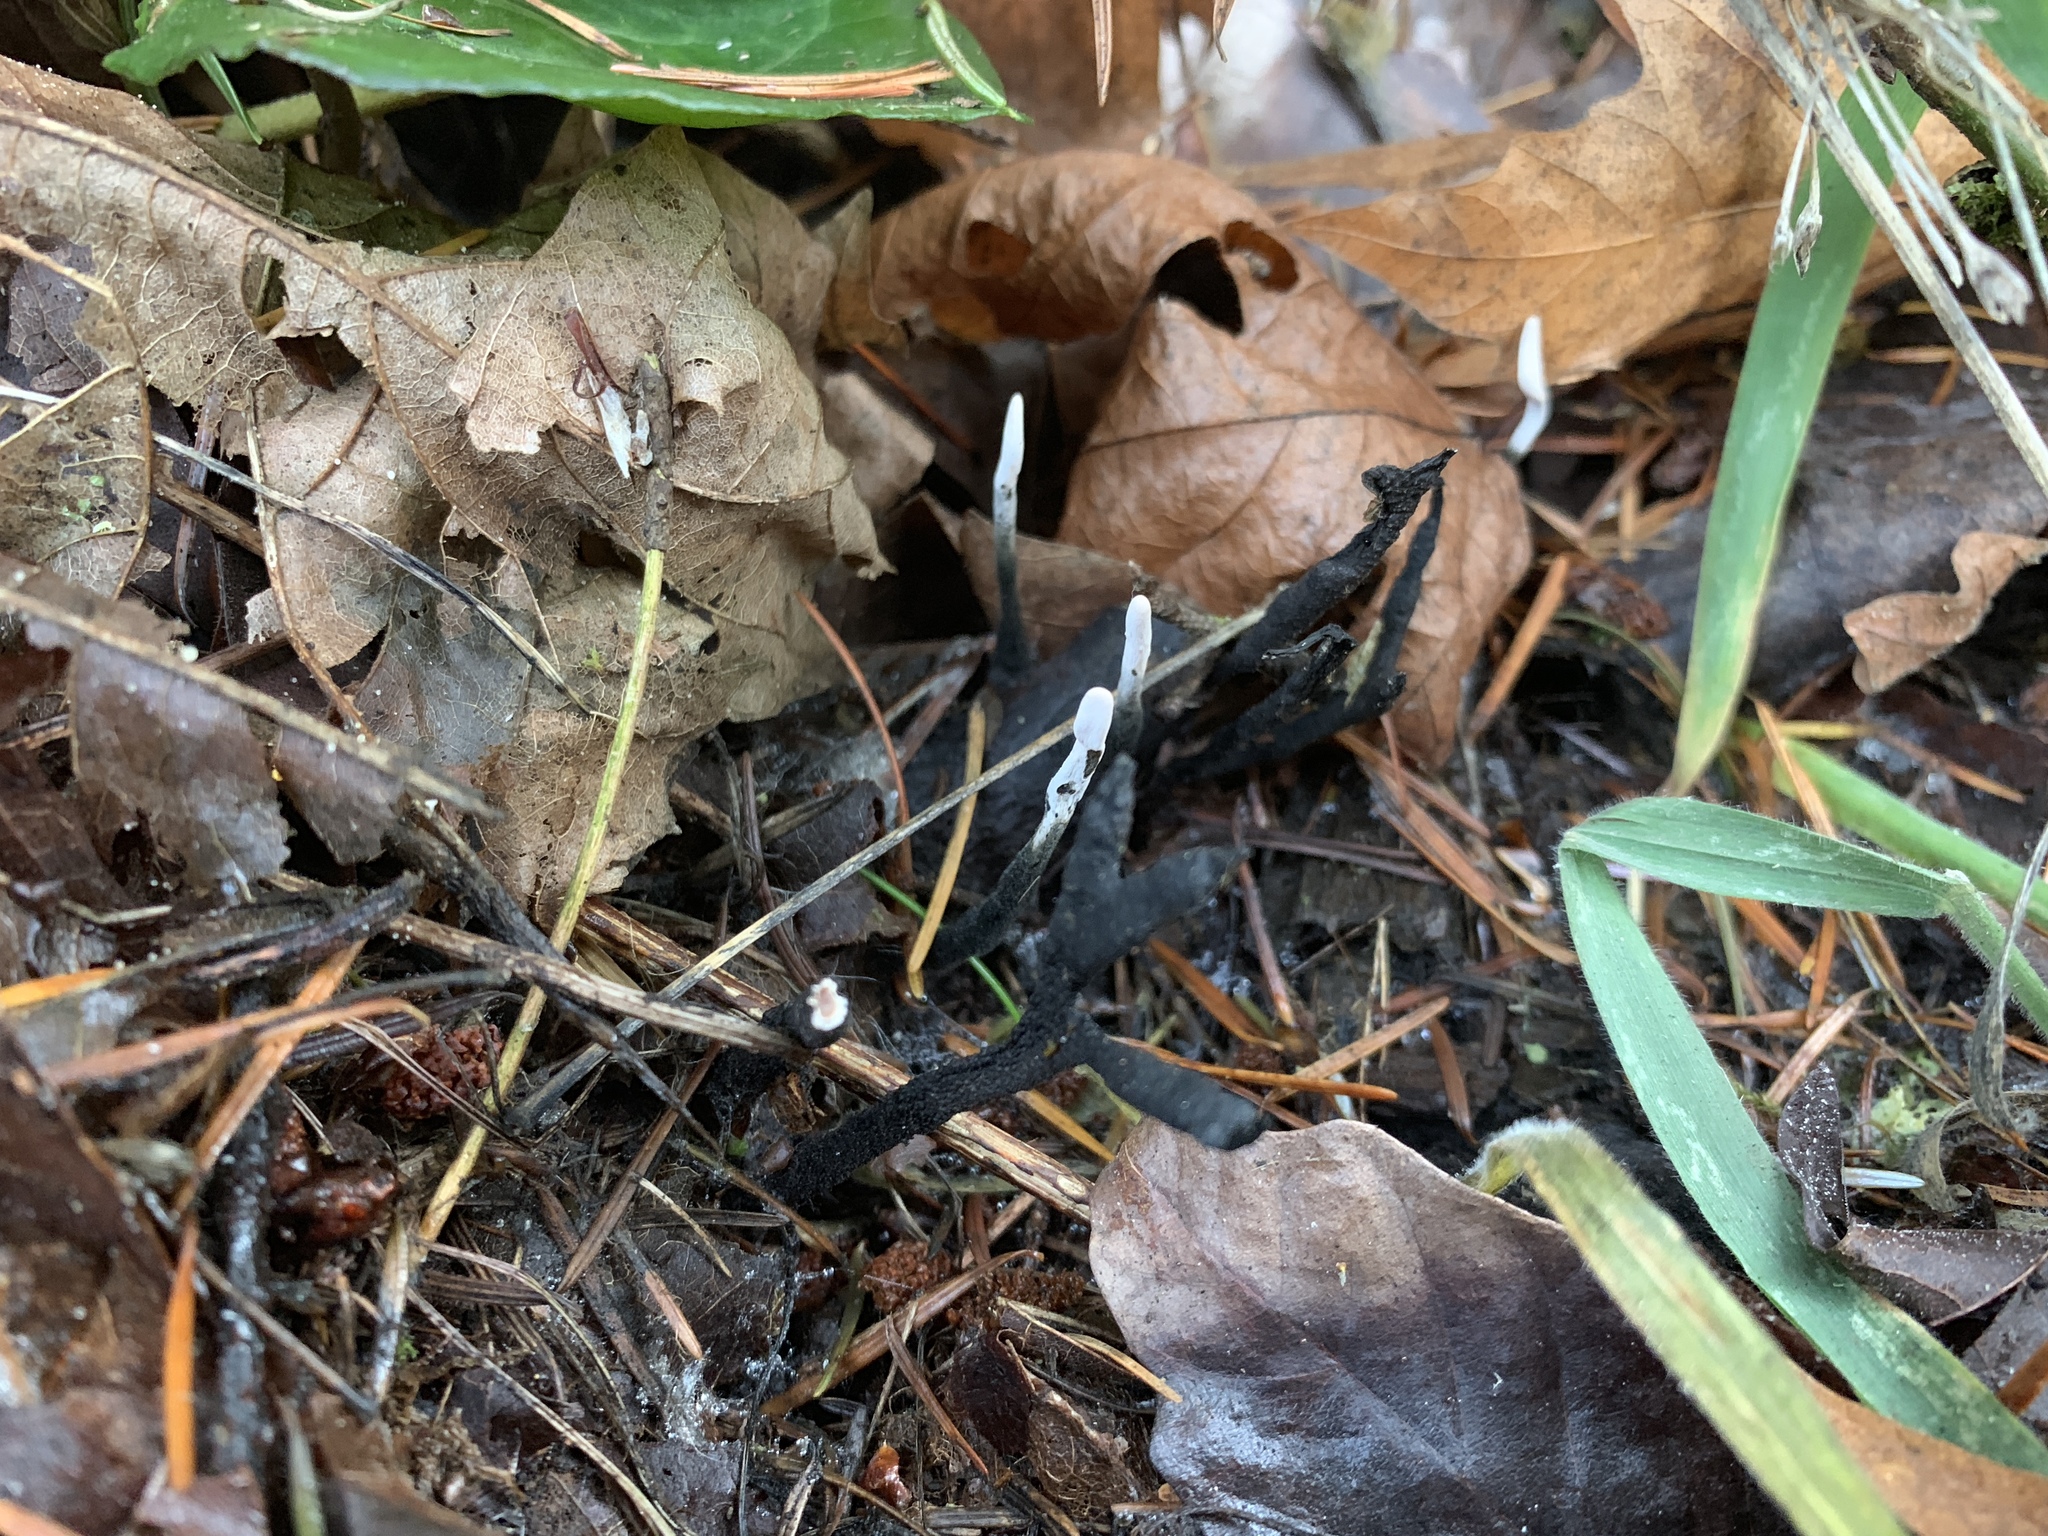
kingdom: Fungi
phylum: Ascomycota
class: Sordariomycetes
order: Xylariales
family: Xylariaceae
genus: Xylaria
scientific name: Xylaria hypoxylon
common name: Candle-snuff fungus
